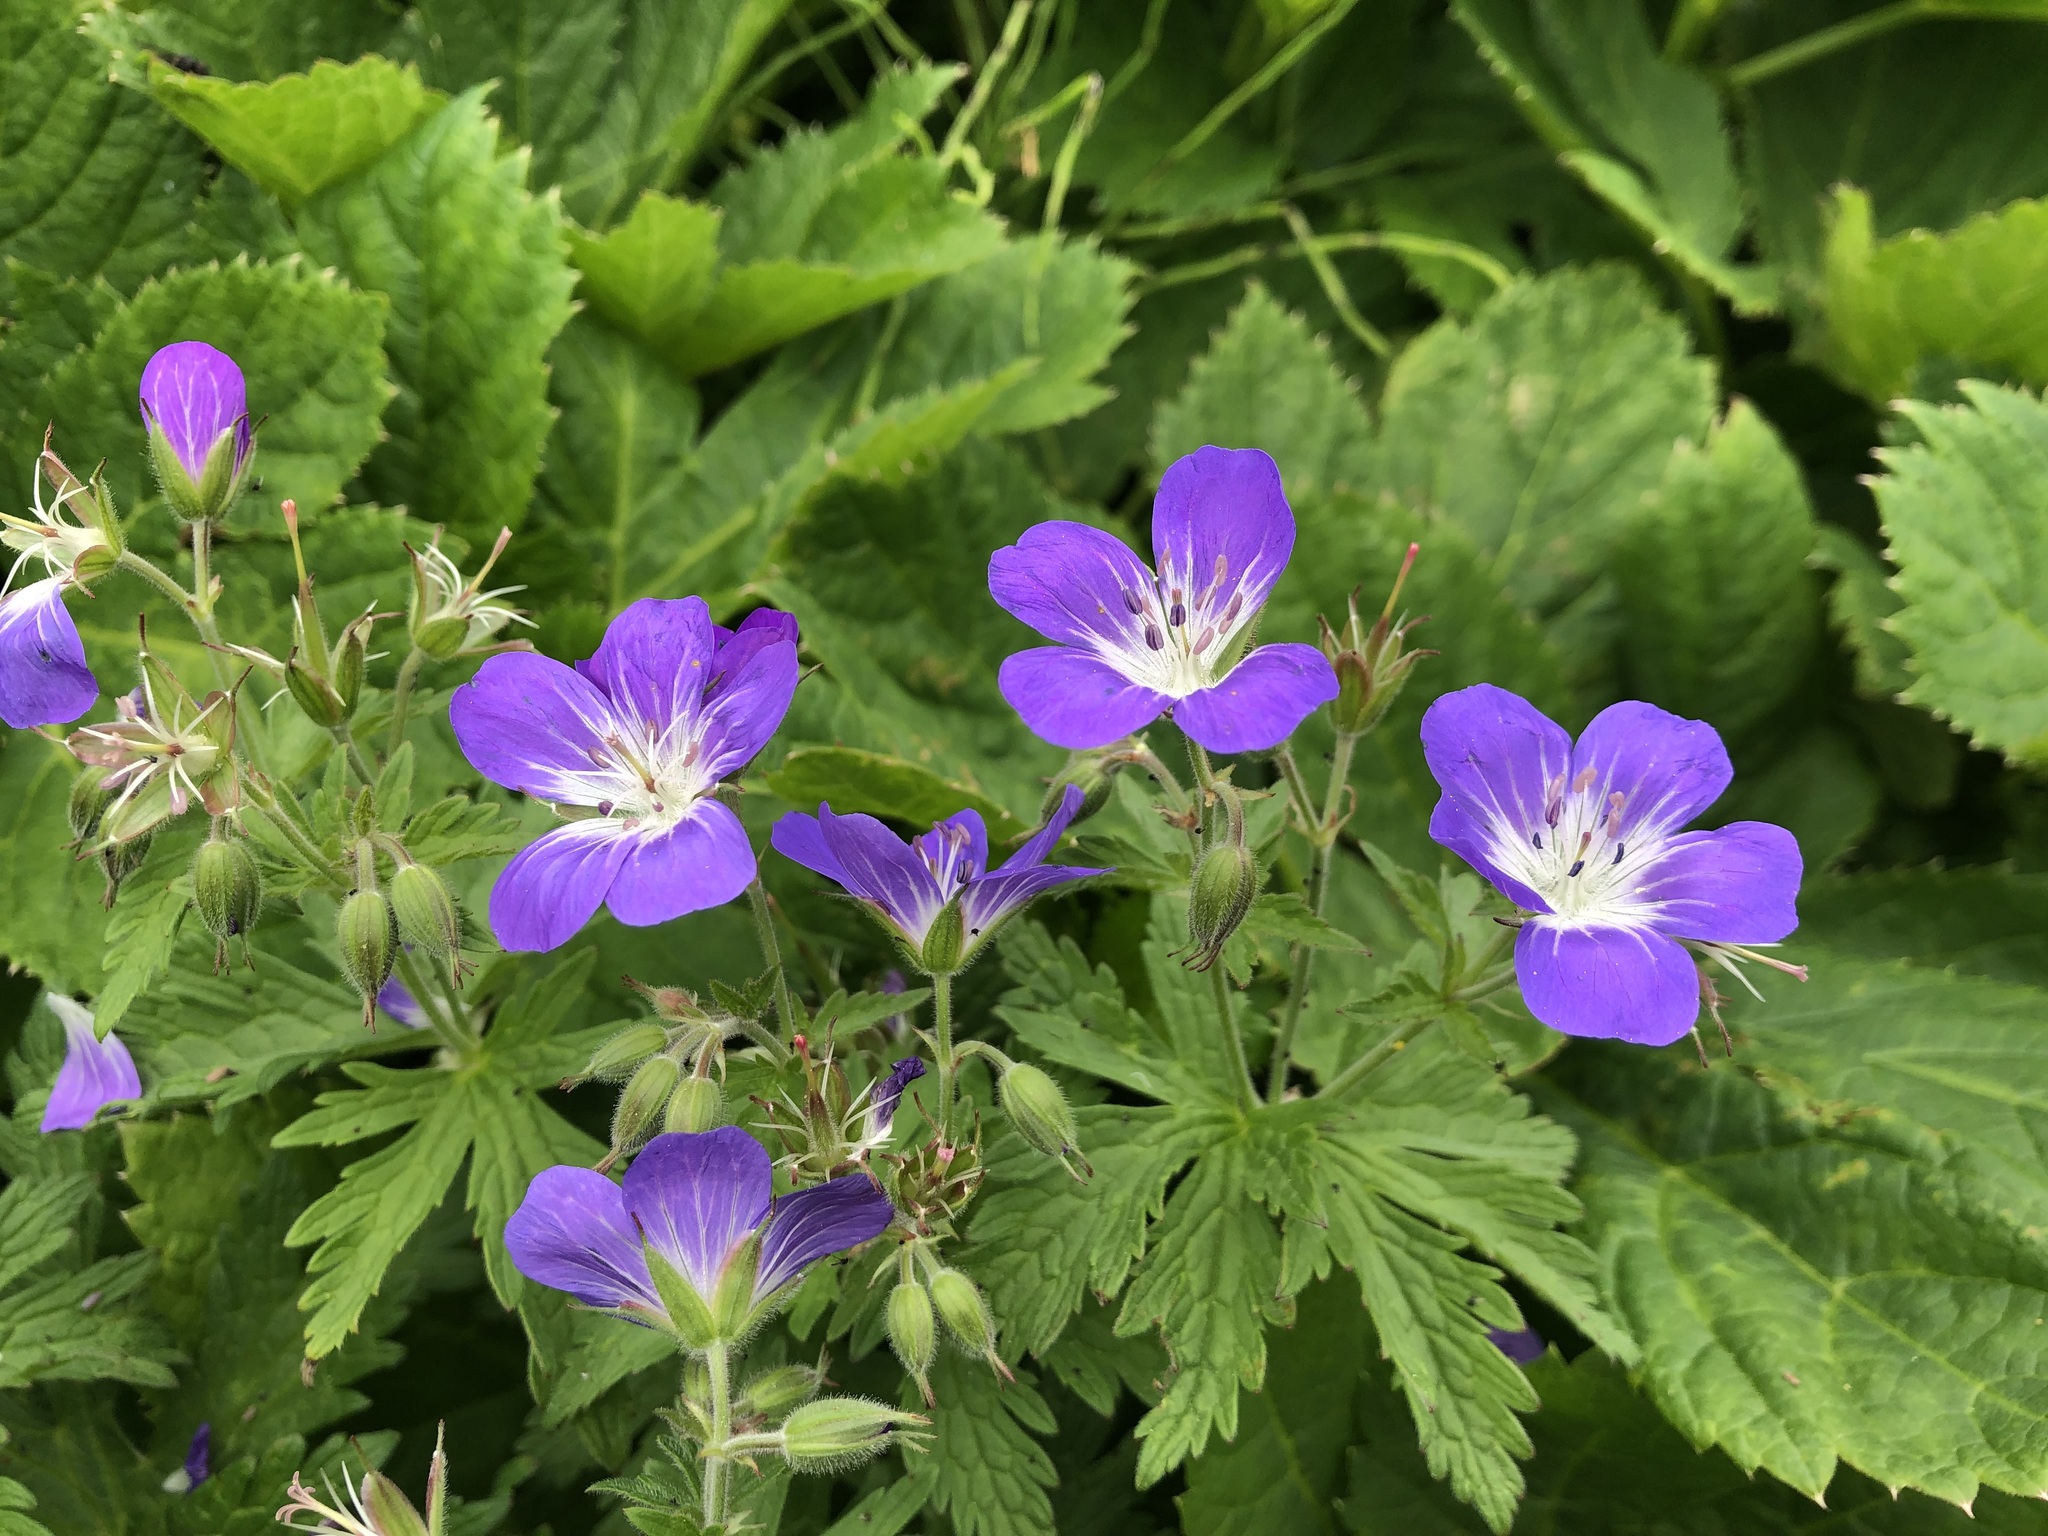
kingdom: Plantae
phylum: Tracheophyta
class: Magnoliopsida
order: Geraniales
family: Geraniaceae
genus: Geranium
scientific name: Geranium sylvaticum
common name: Wood crane's-bill
